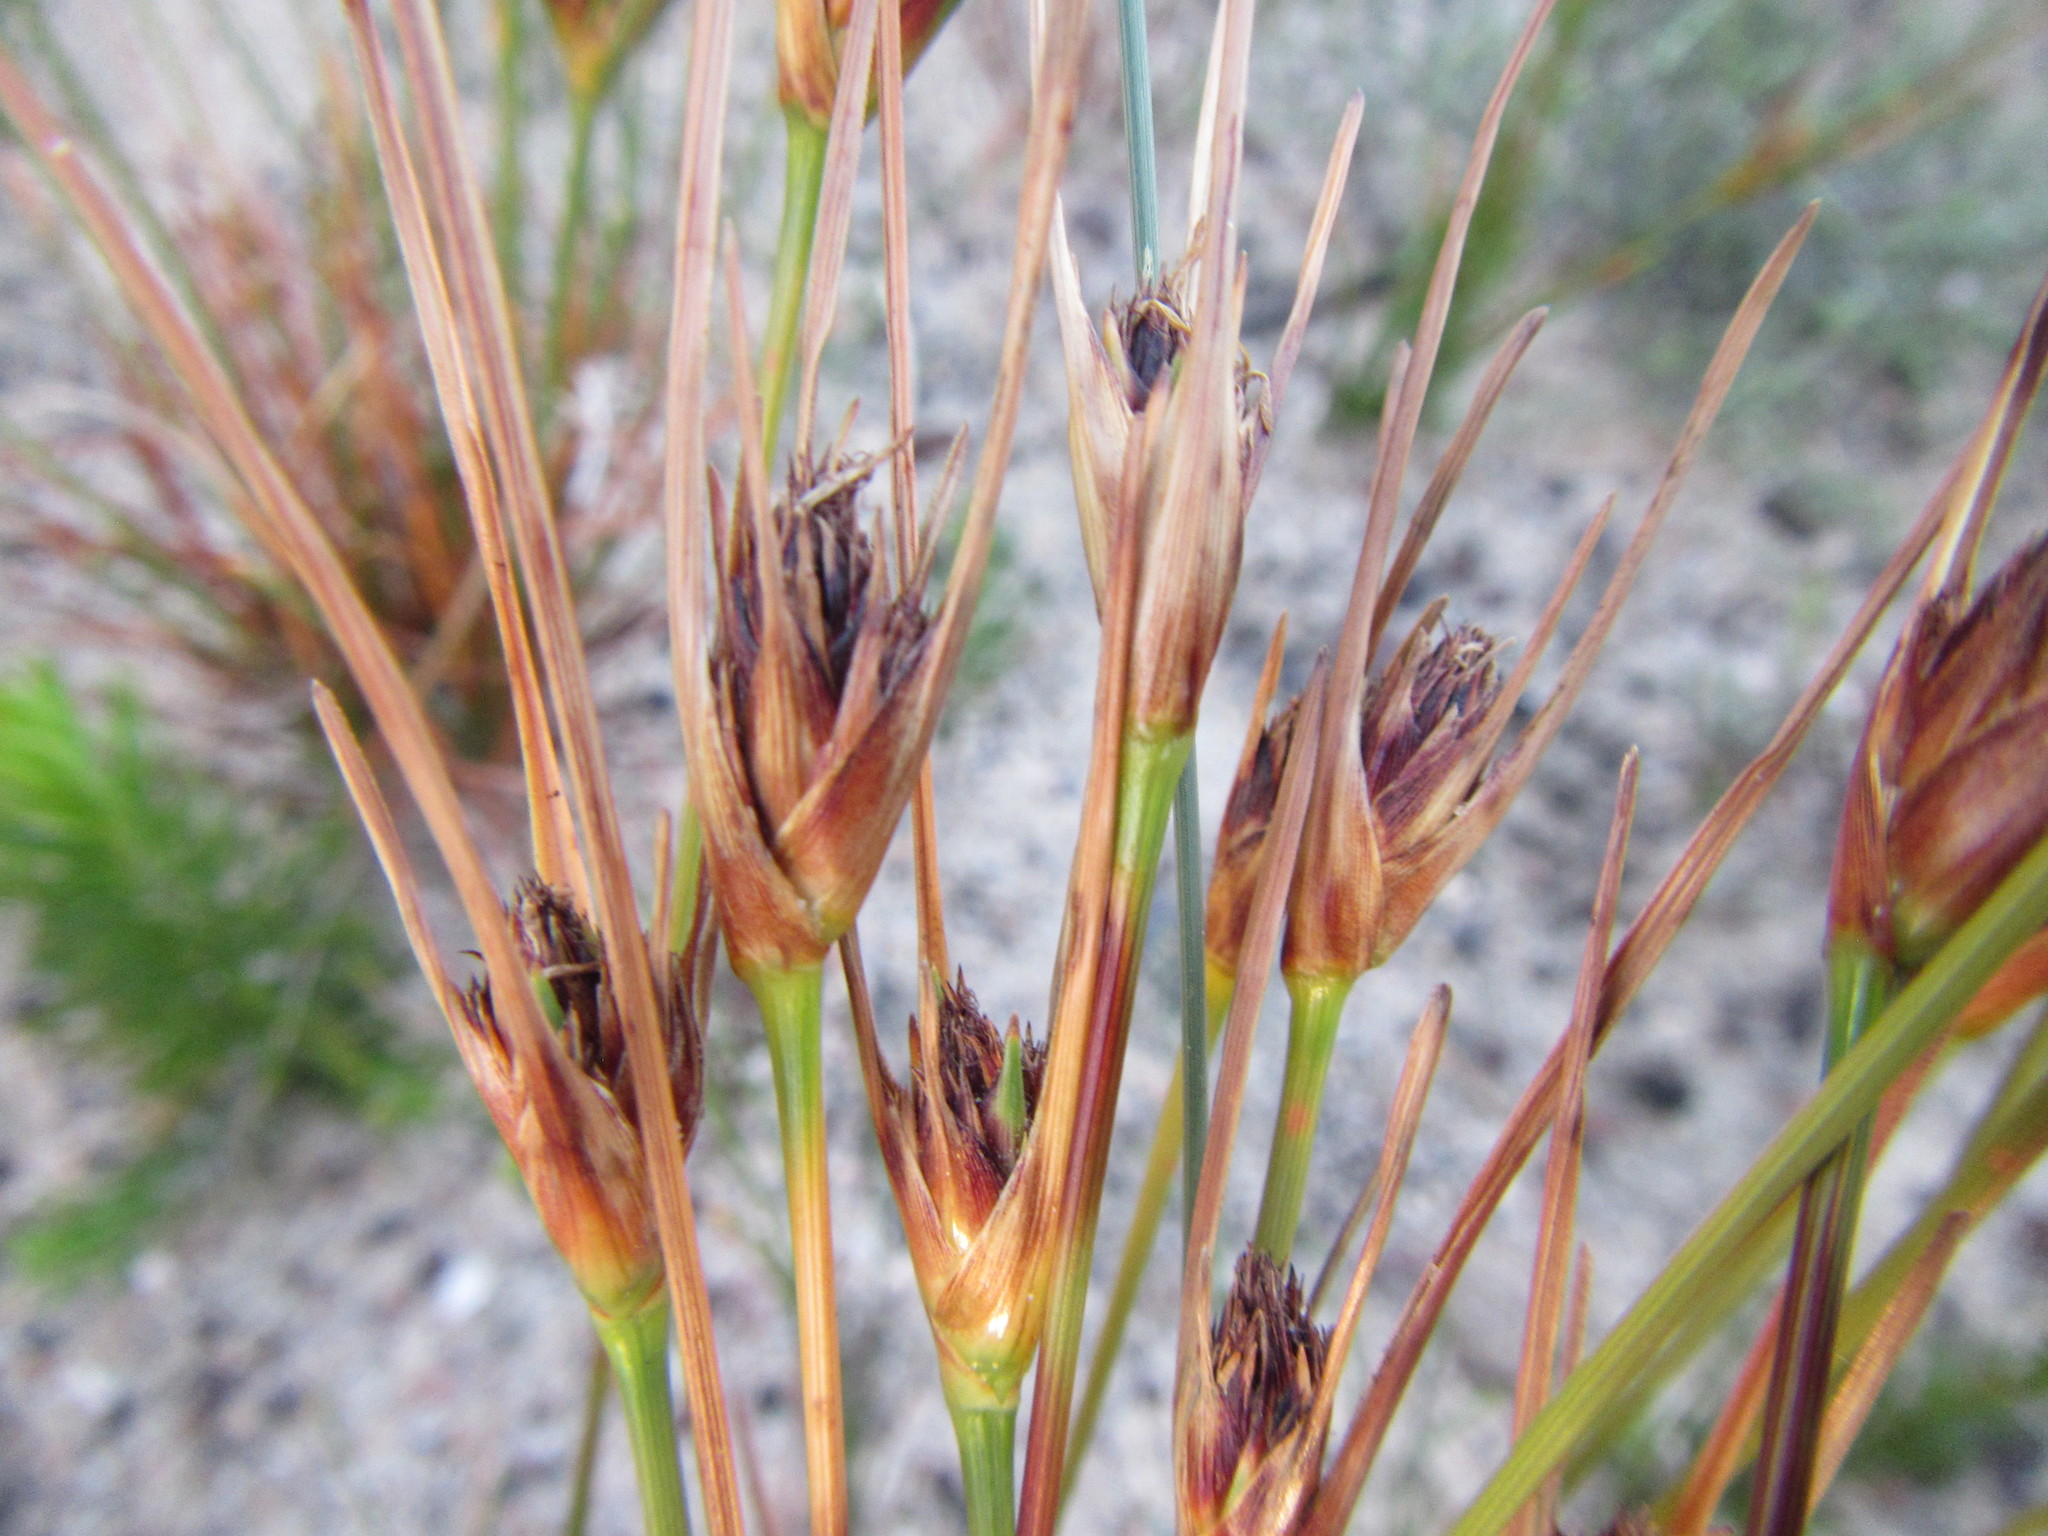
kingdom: Plantae
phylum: Tracheophyta
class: Liliopsida
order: Poales
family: Cyperaceae
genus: Ficinia
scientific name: Ficinia pallens
